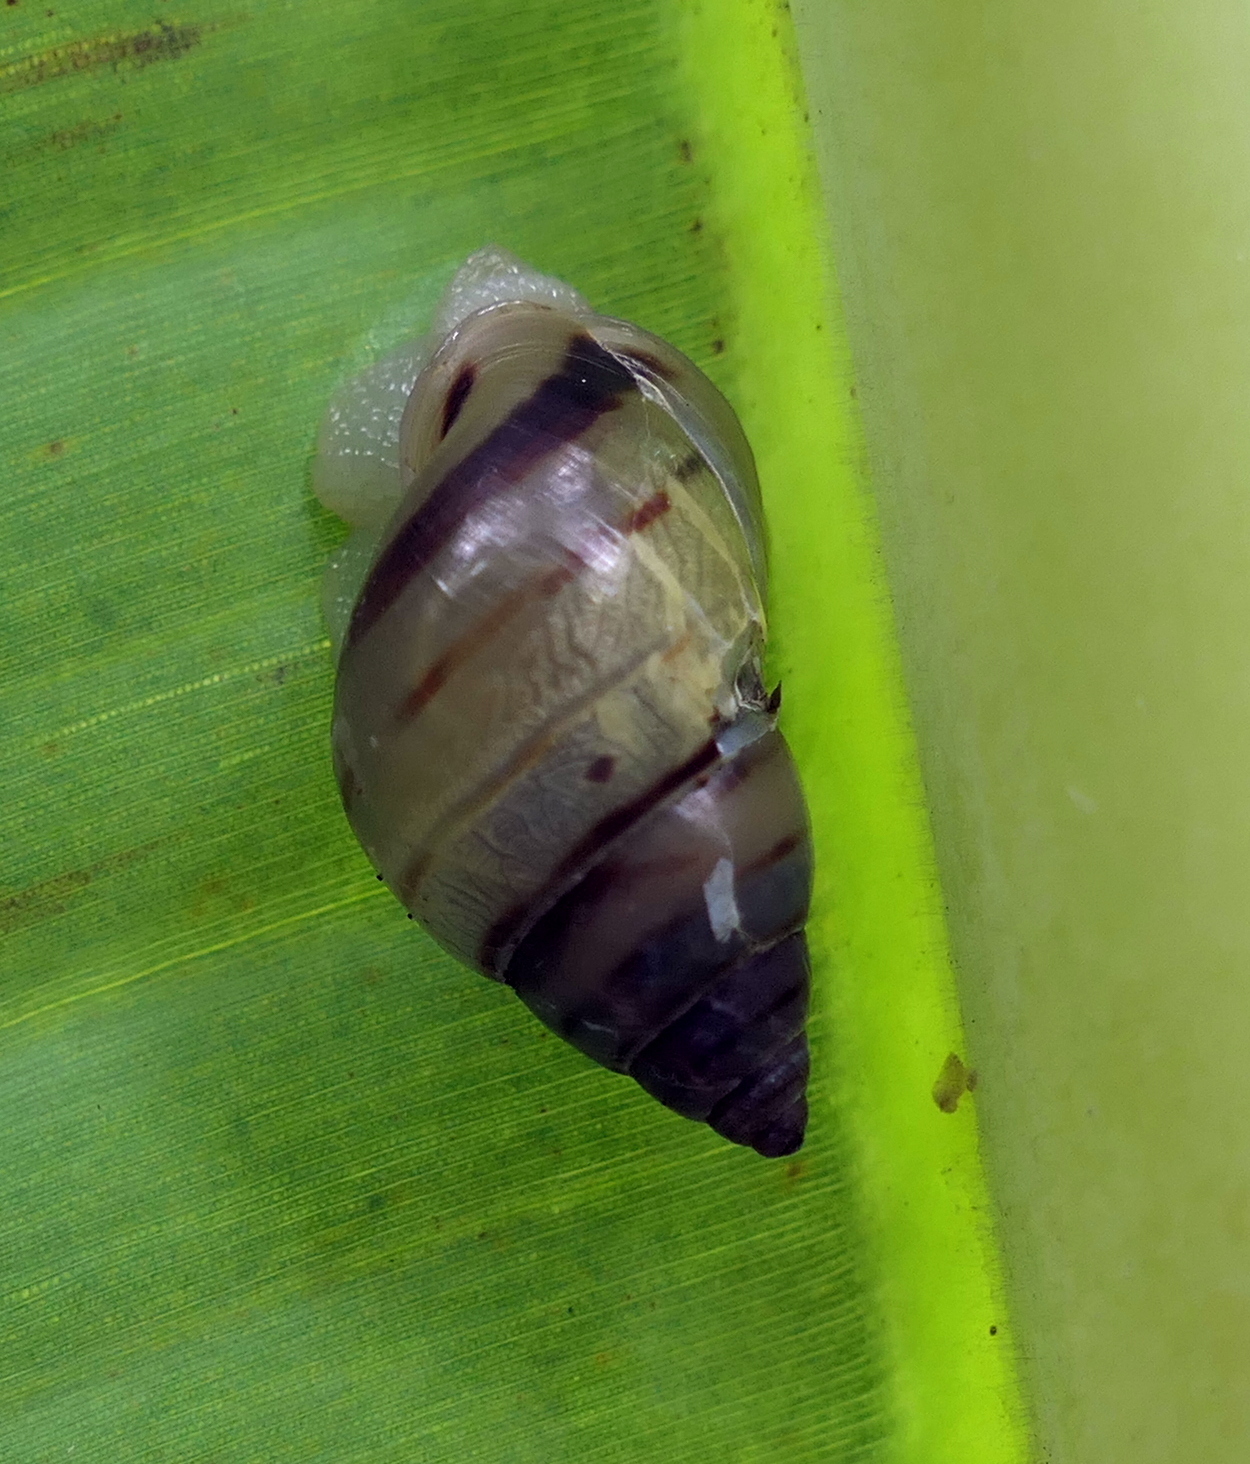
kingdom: Animalia
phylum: Mollusca
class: Gastropoda
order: Stylommatophora
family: Bulimulidae
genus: Drymaeus
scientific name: Drymaeus
